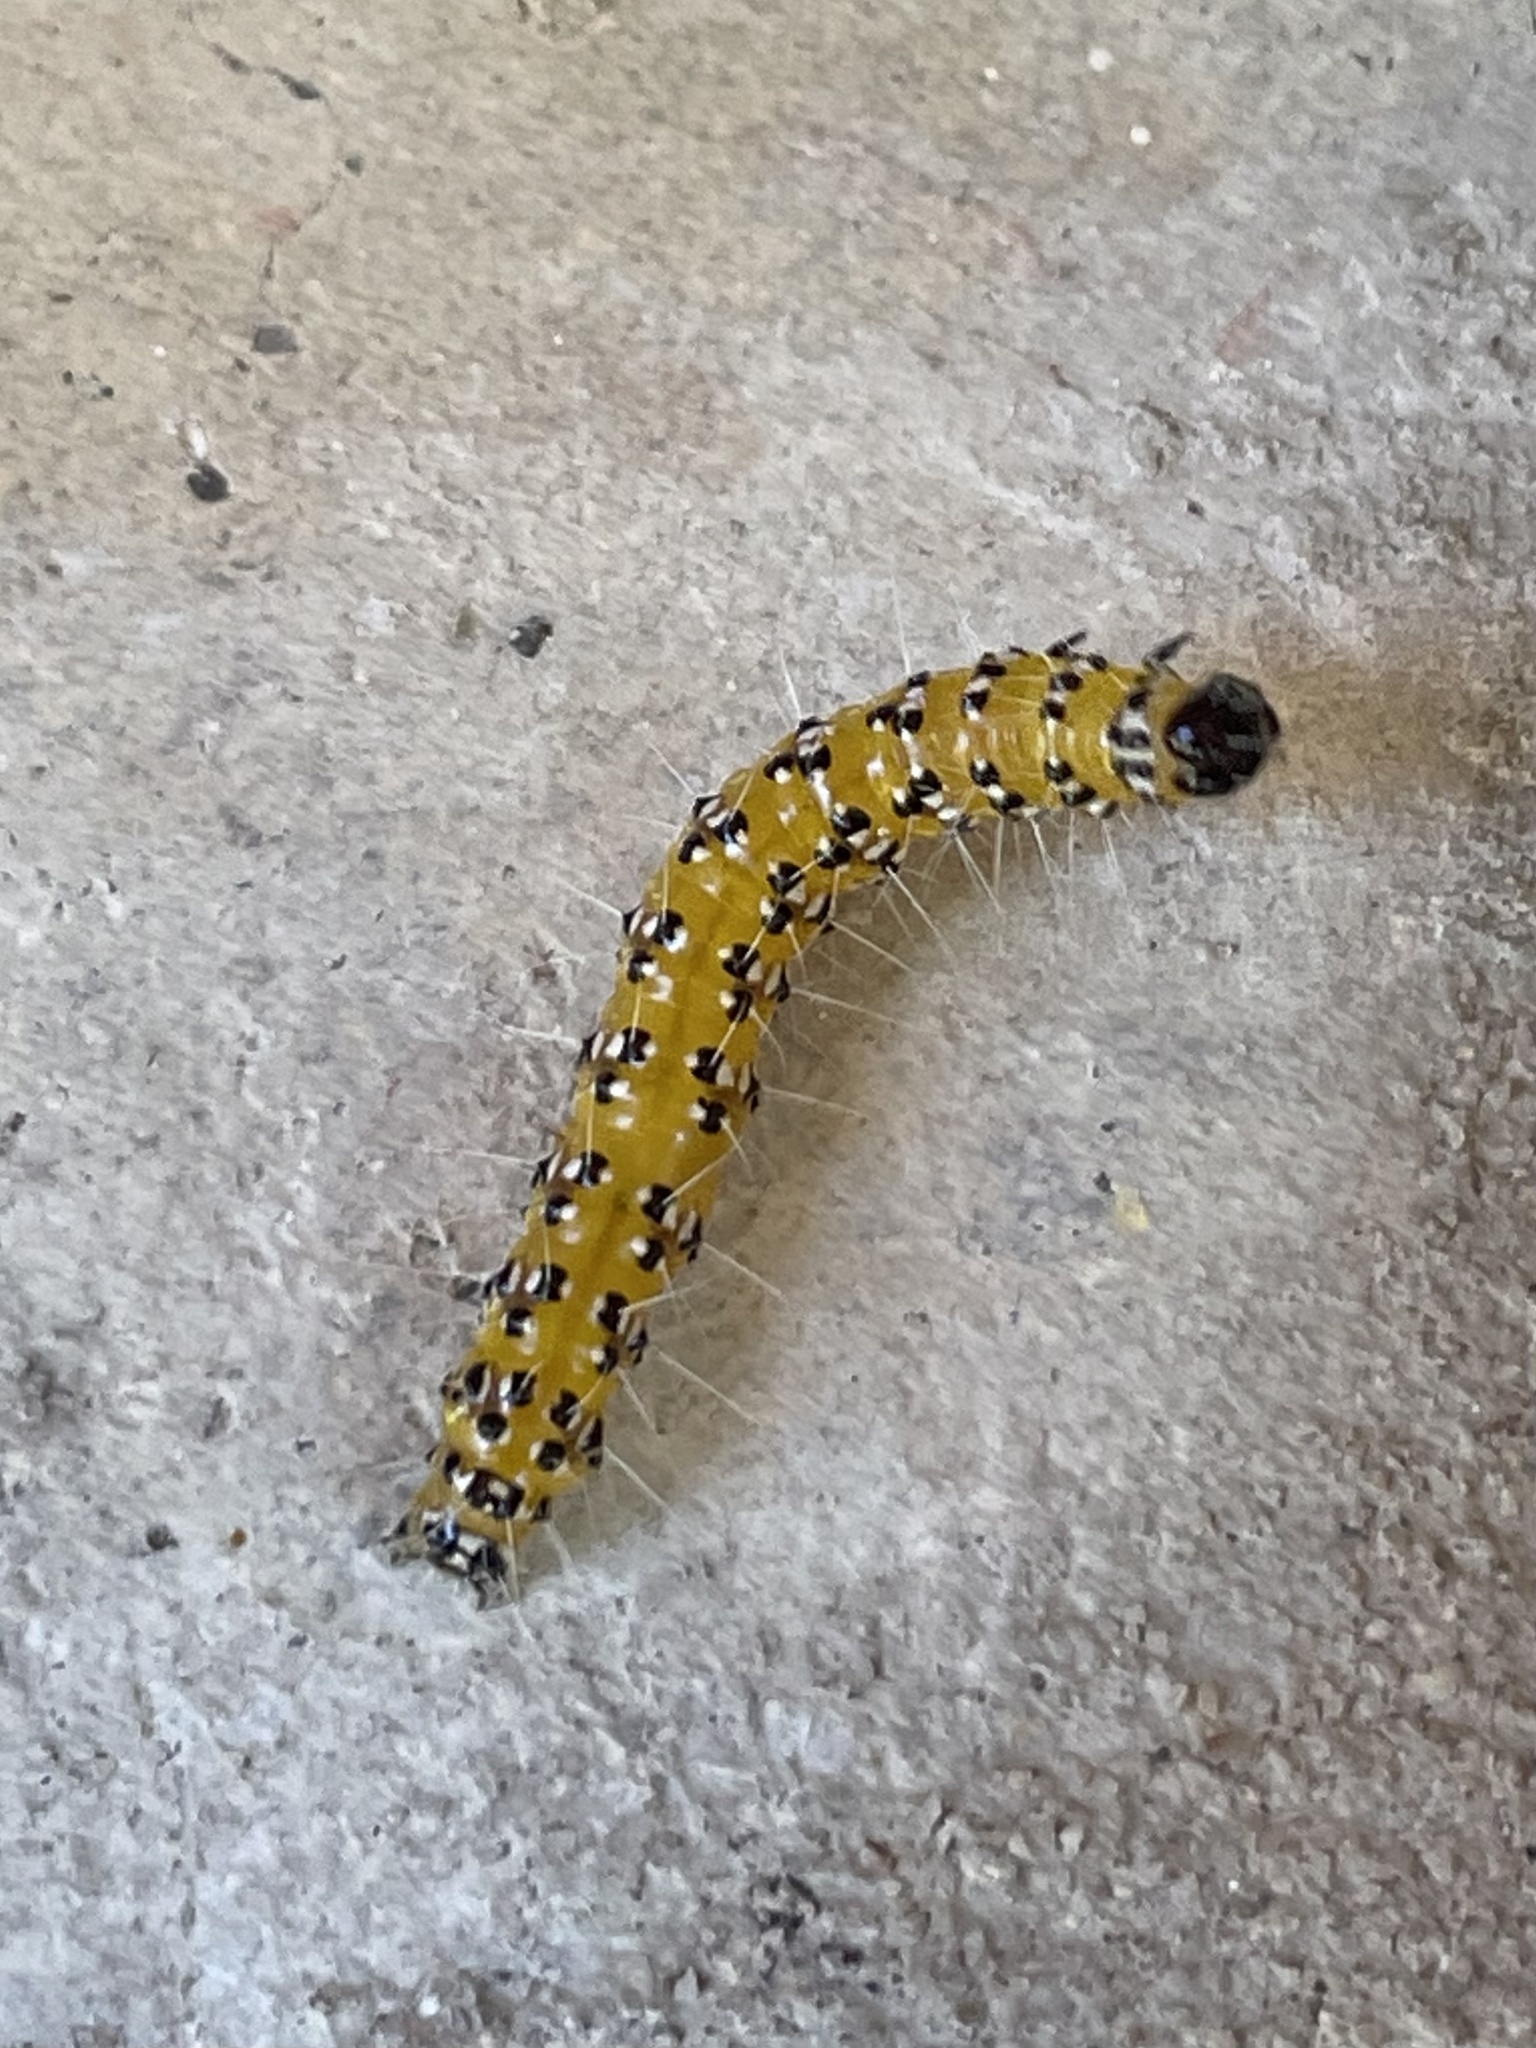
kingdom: Animalia
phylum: Arthropoda
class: Insecta
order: Lepidoptera
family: Crambidae
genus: Uresiphita
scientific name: Uresiphita reversalis
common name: Genista broom moth
